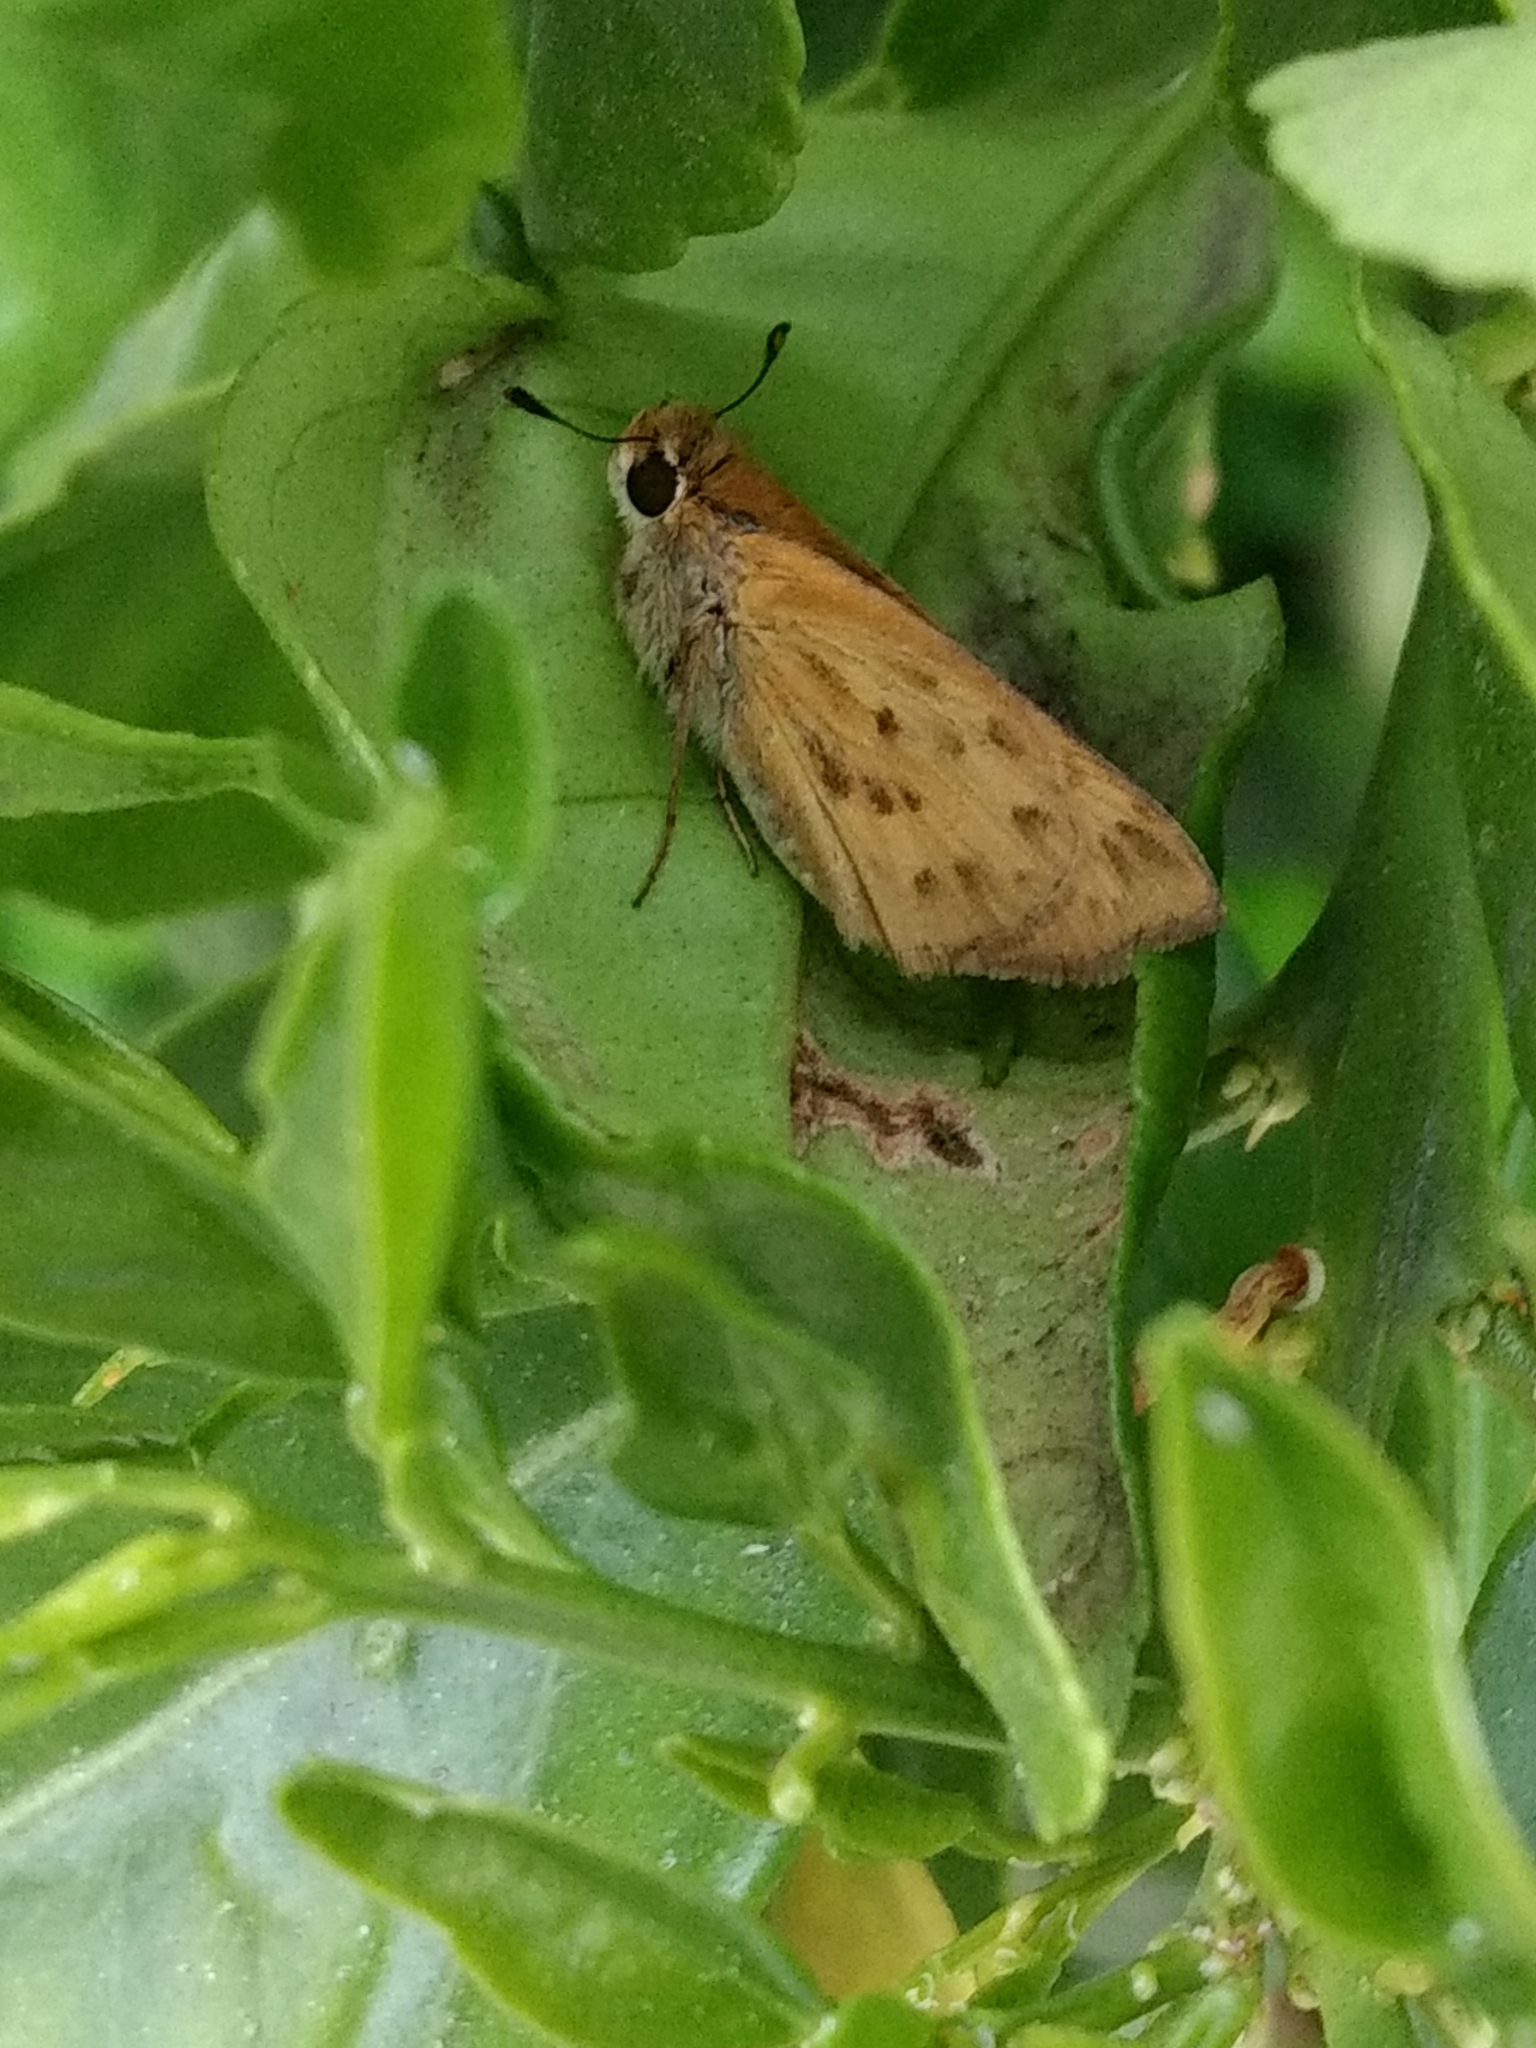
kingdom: Animalia
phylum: Arthropoda
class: Insecta
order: Lepidoptera
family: Hesperiidae
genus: Hylephila
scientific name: Hylephila phyleus
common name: Fiery skipper
